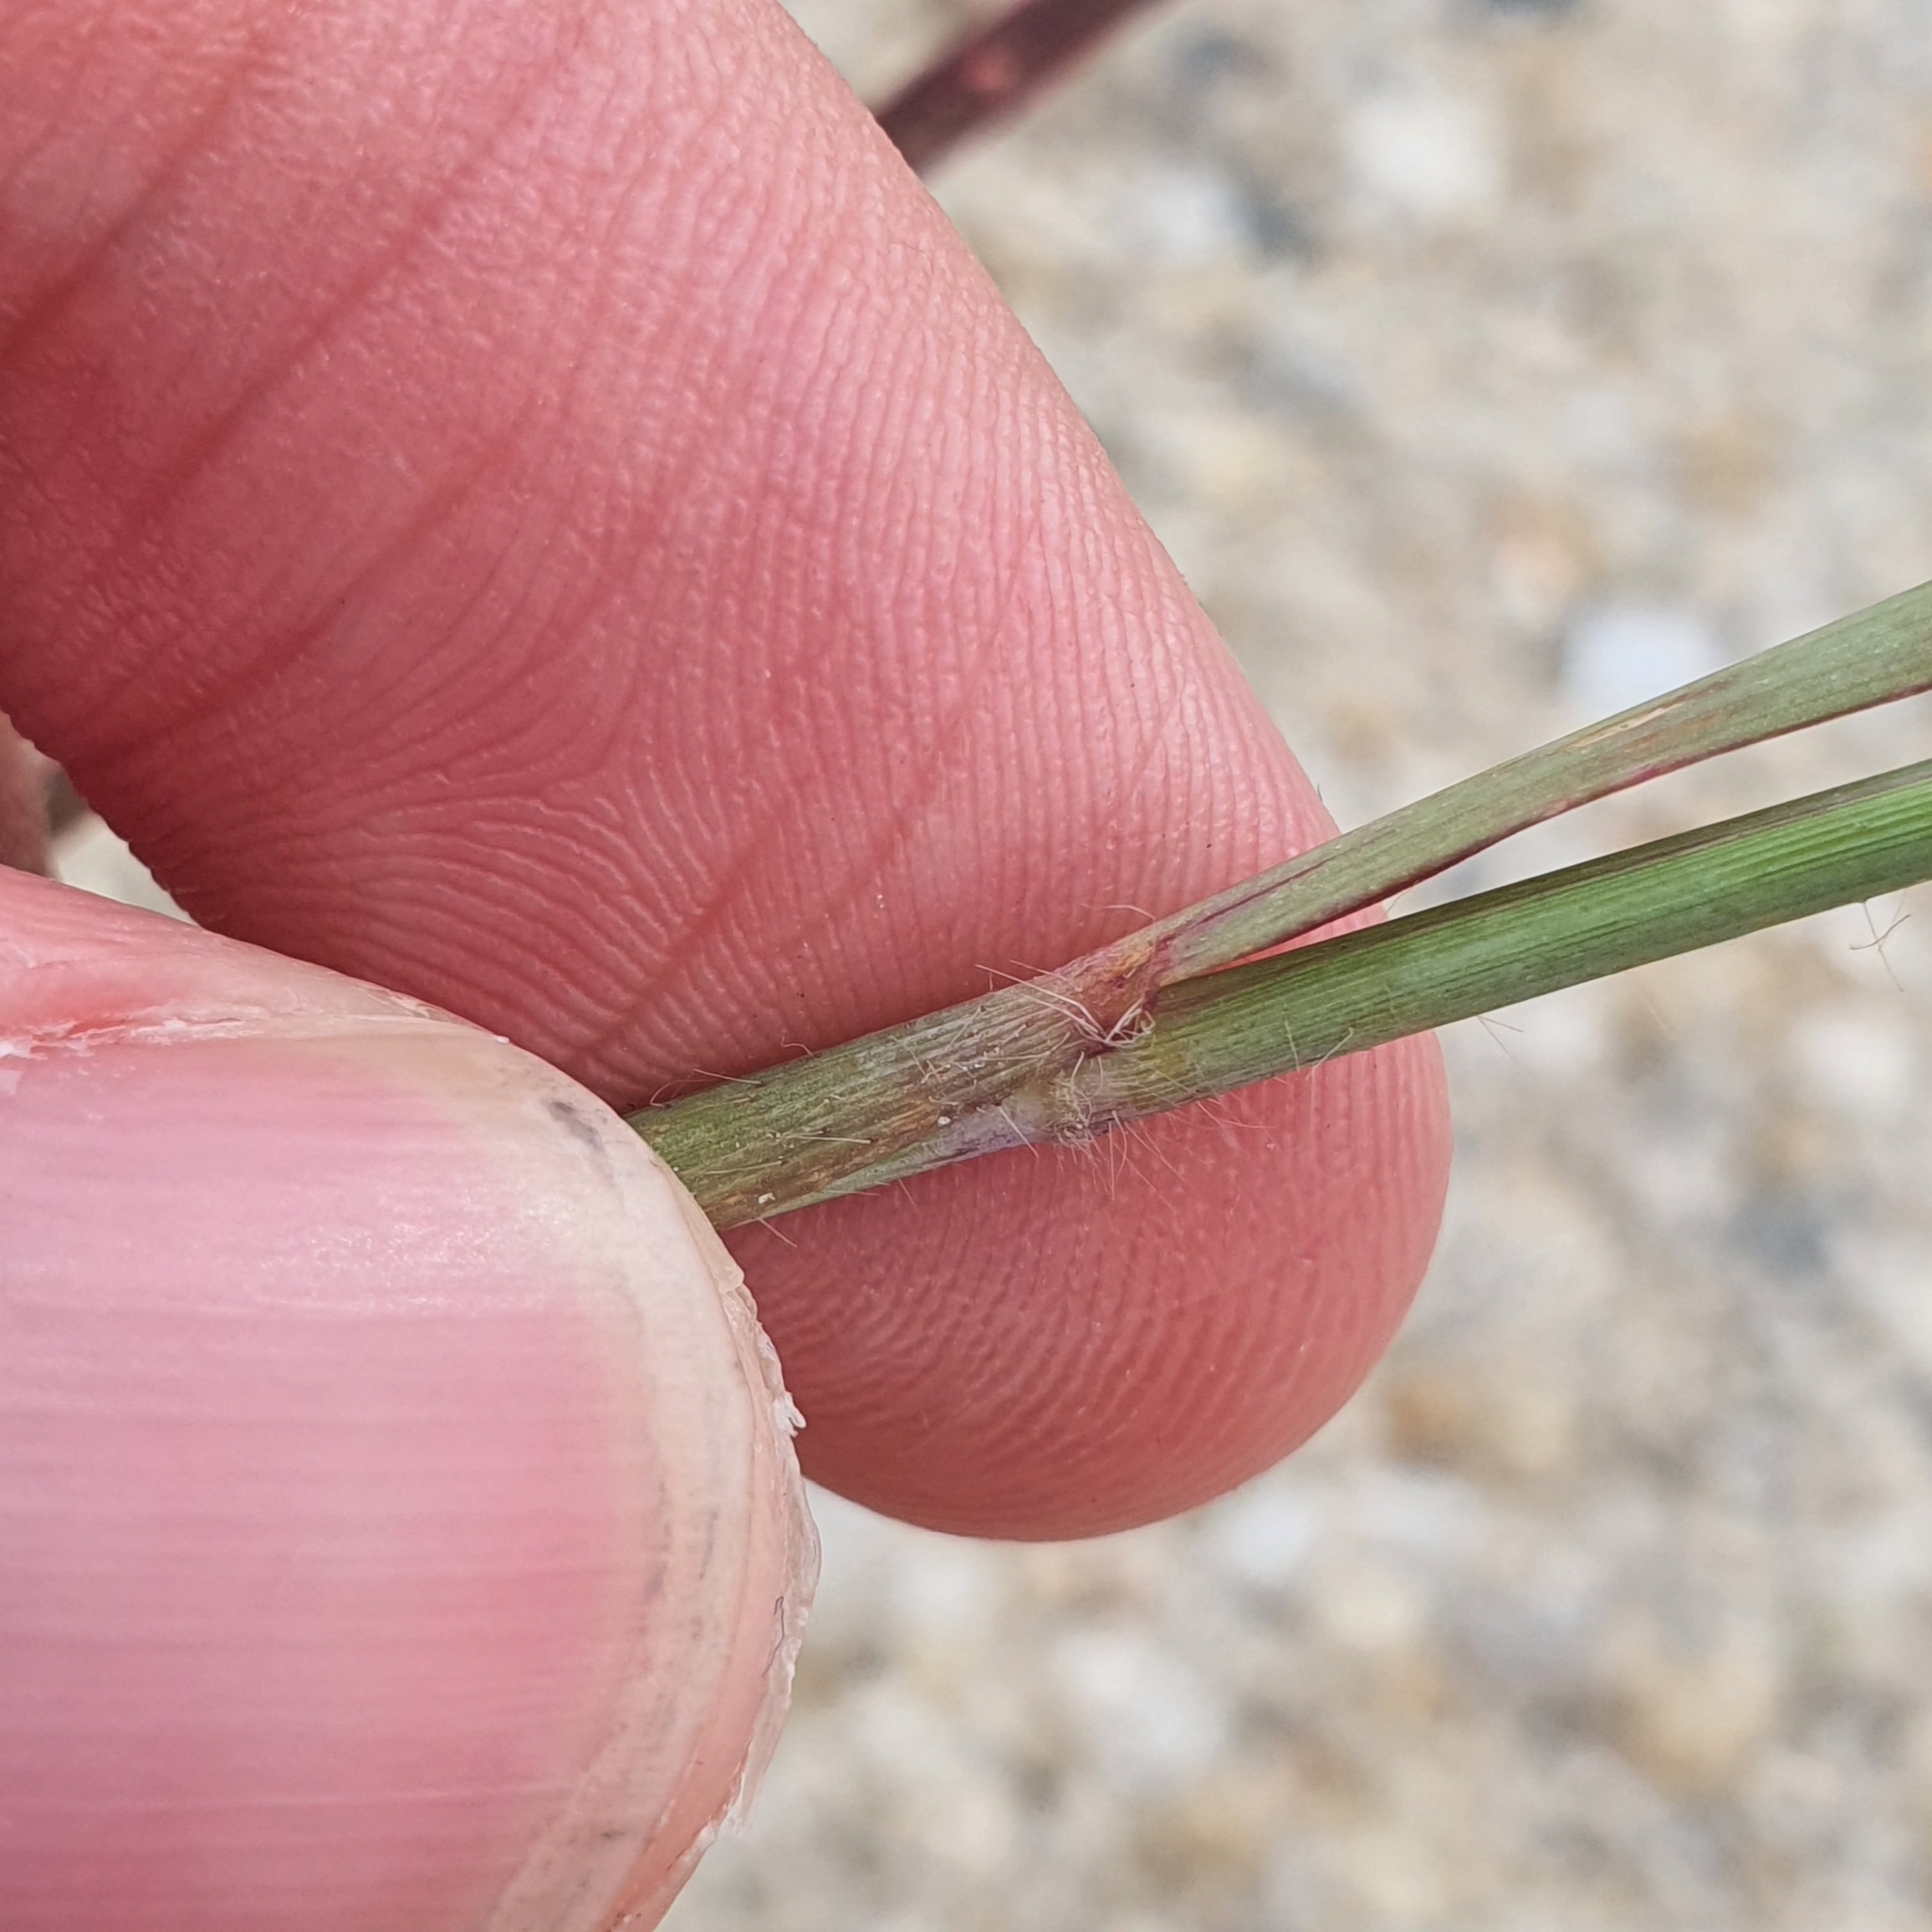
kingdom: Plantae
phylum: Tracheophyta
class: Liliopsida
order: Poales
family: Poaceae
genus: Melinis
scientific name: Melinis repens
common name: Rose natal grass
